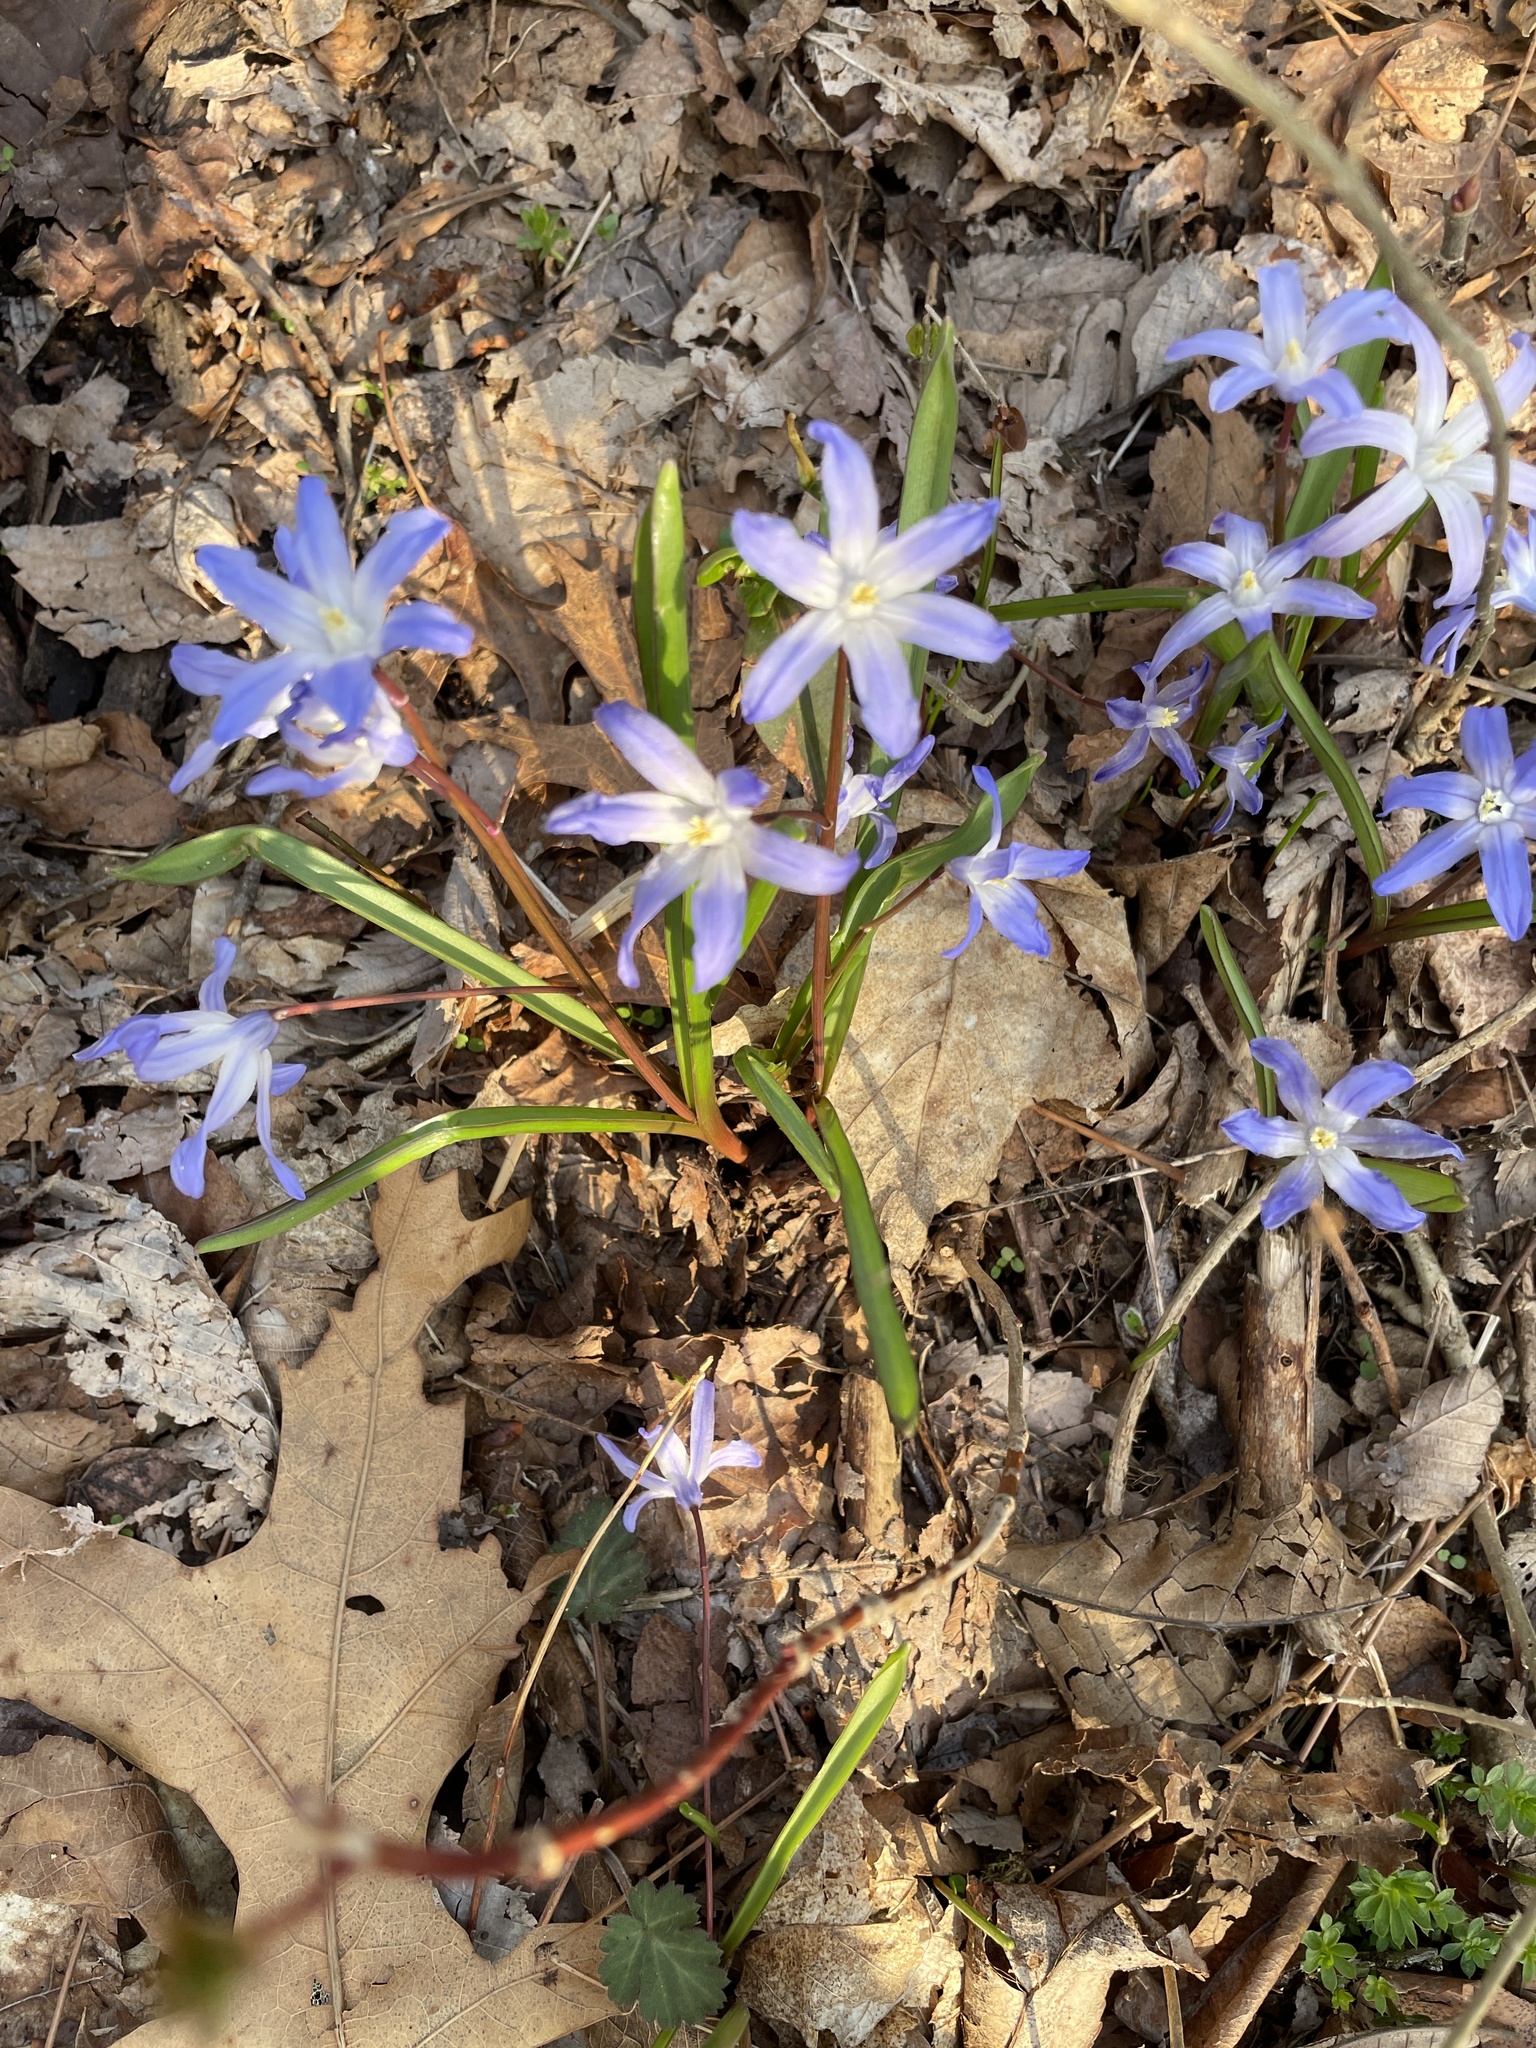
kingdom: Plantae
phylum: Tracheophyta
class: Liliopsida
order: Asparagales
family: Asparagaceae
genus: Scilla
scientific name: Scilla luciliae
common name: Boissier's glory-of-the-snow
